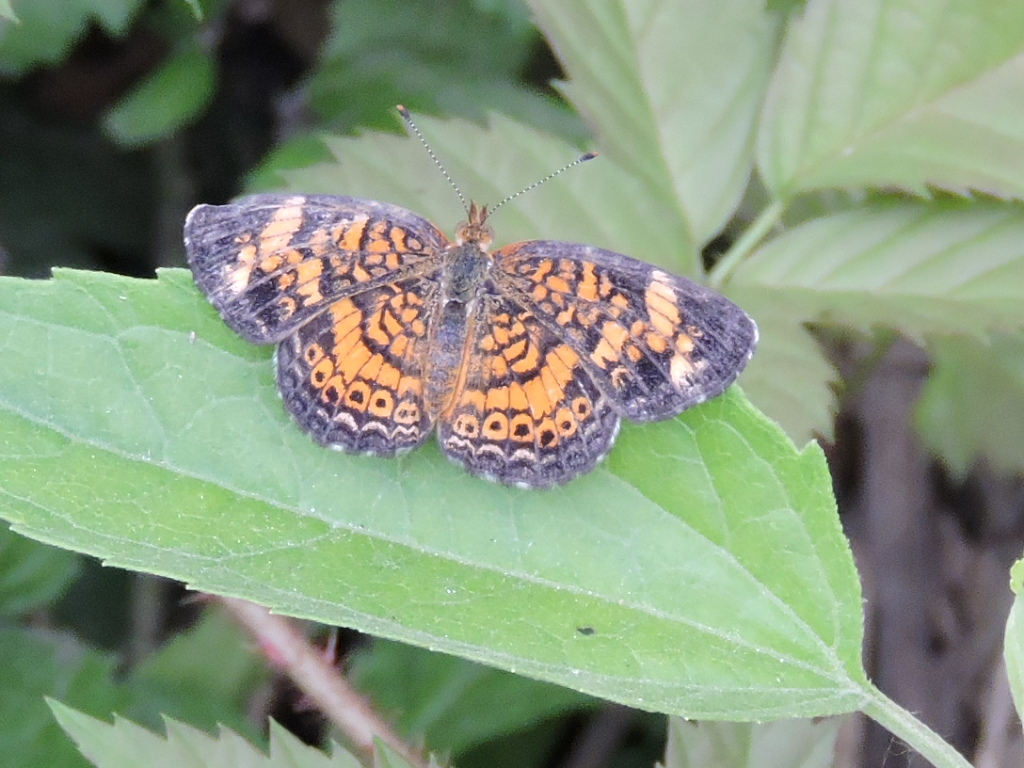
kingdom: Animalia
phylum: Arthropoda
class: Insecta
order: Lepidoptera
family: Nymphalidae
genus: Phyciodes
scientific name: Phyciodes tharos
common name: Pearl crescent
